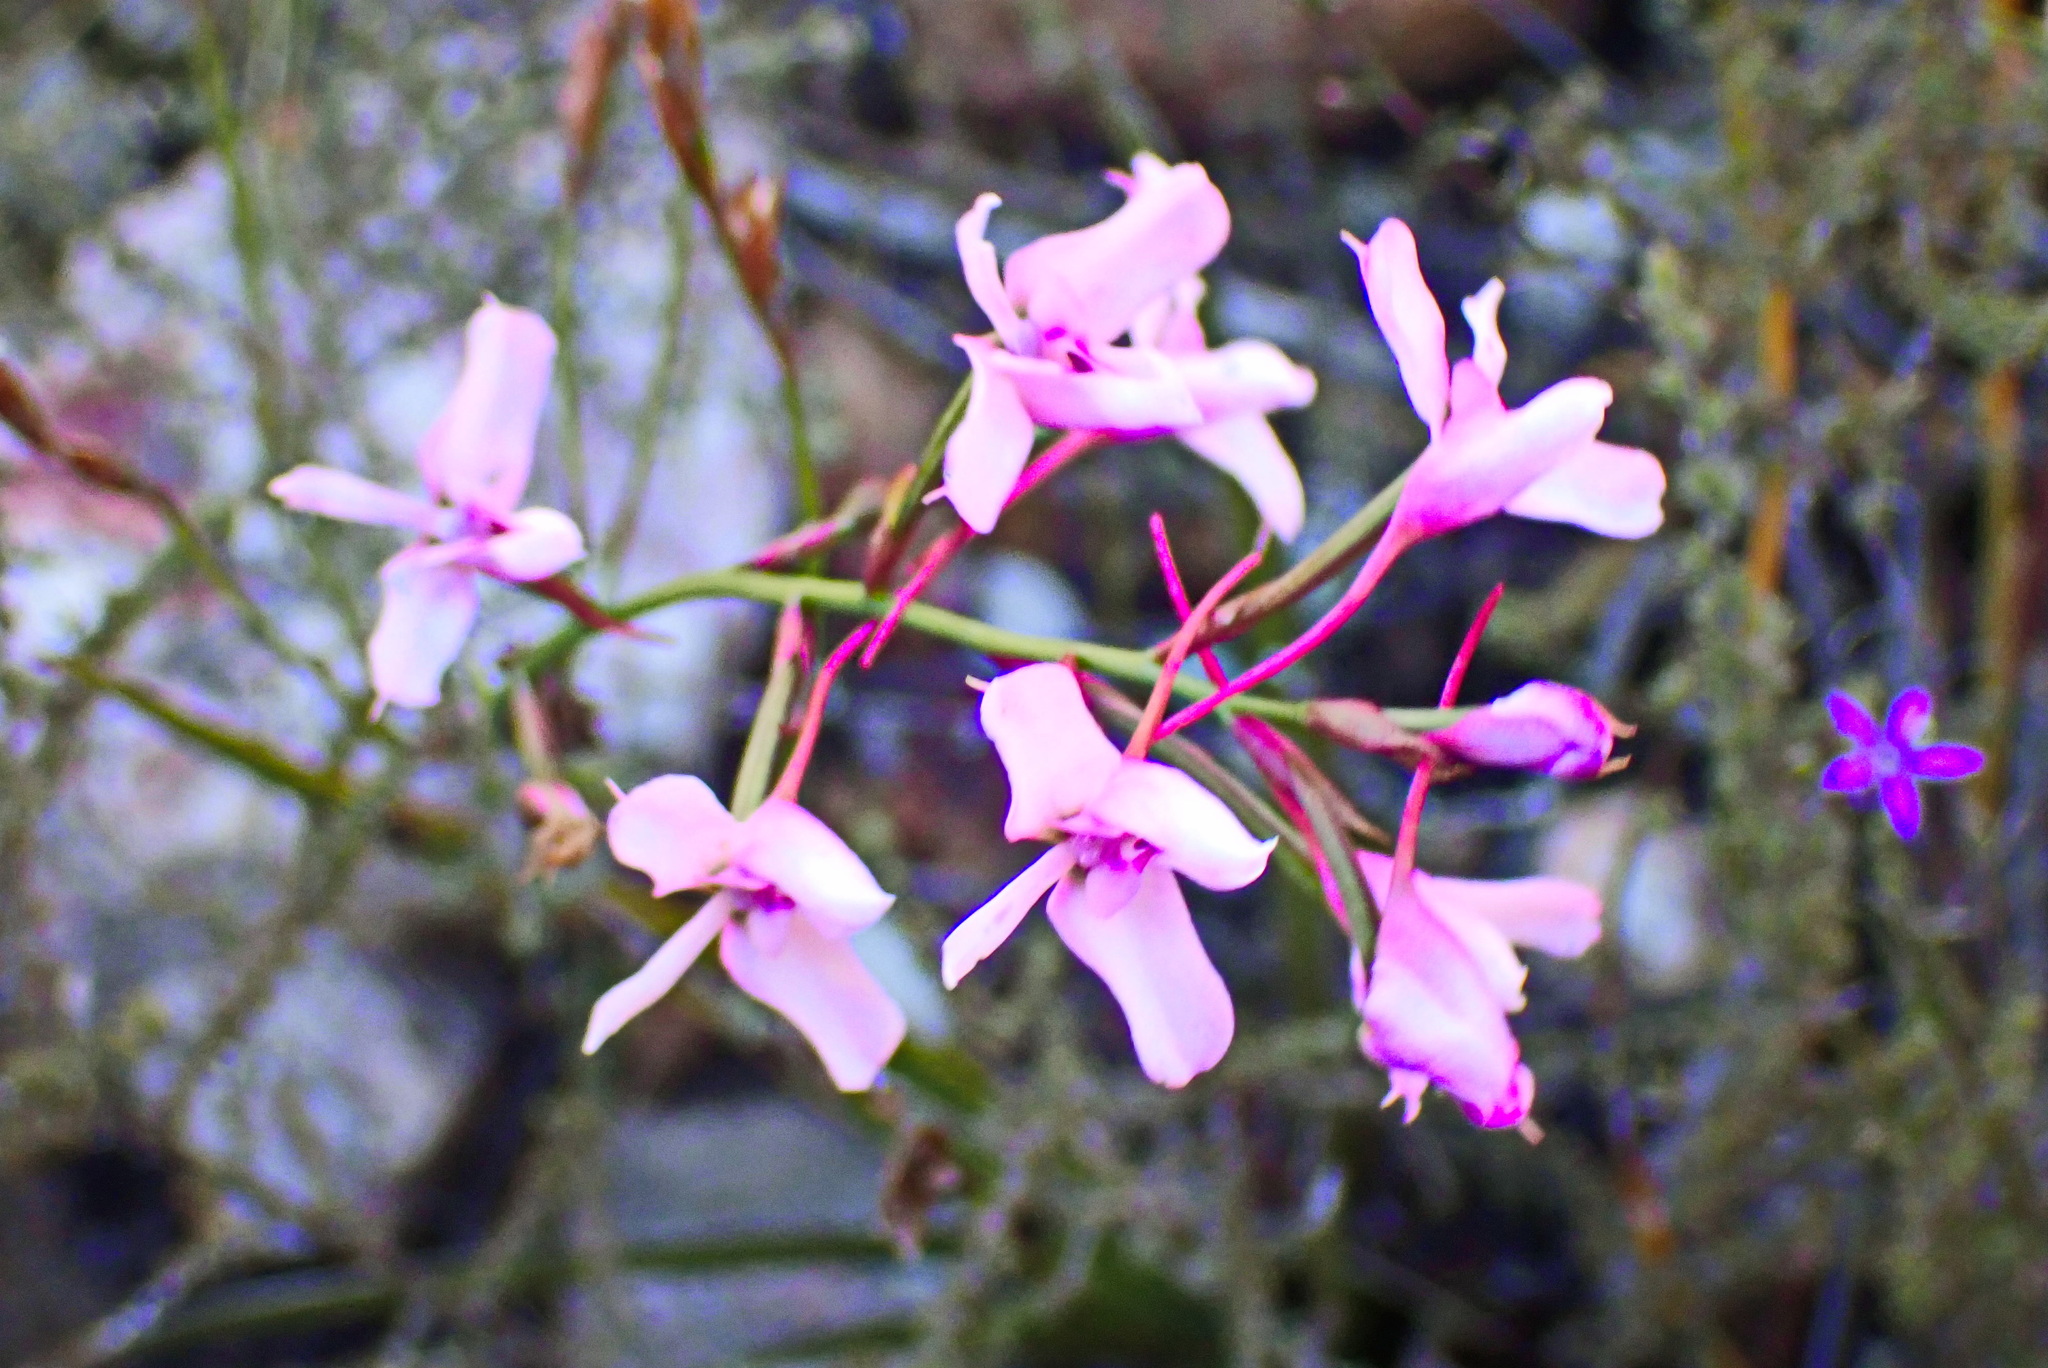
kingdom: Plantae
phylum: Tracheophyta
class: Liliopsida
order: Asparagales
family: Orchidaceae
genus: Disa
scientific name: Disa arida
